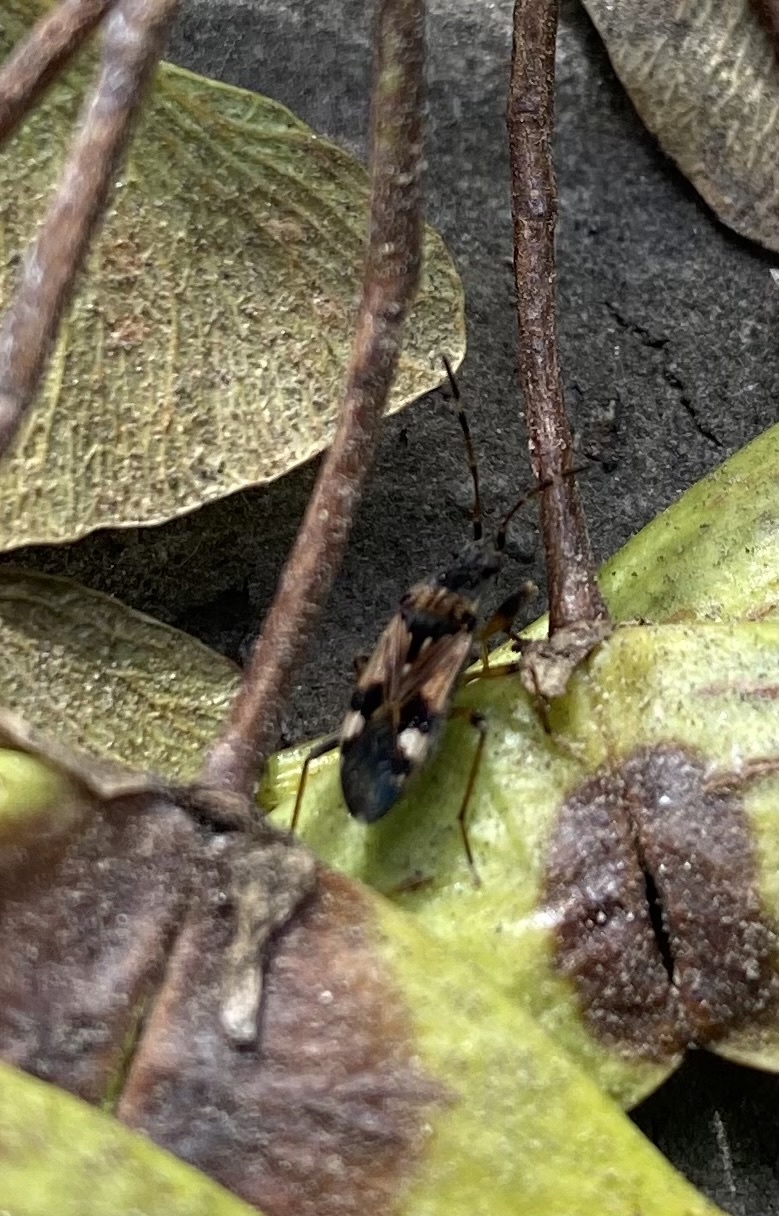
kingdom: Animalia
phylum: Arthropoda
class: Insecta
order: Hemiptera
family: Rhyparochromidae
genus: Beosus
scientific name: Beosus maritimus
